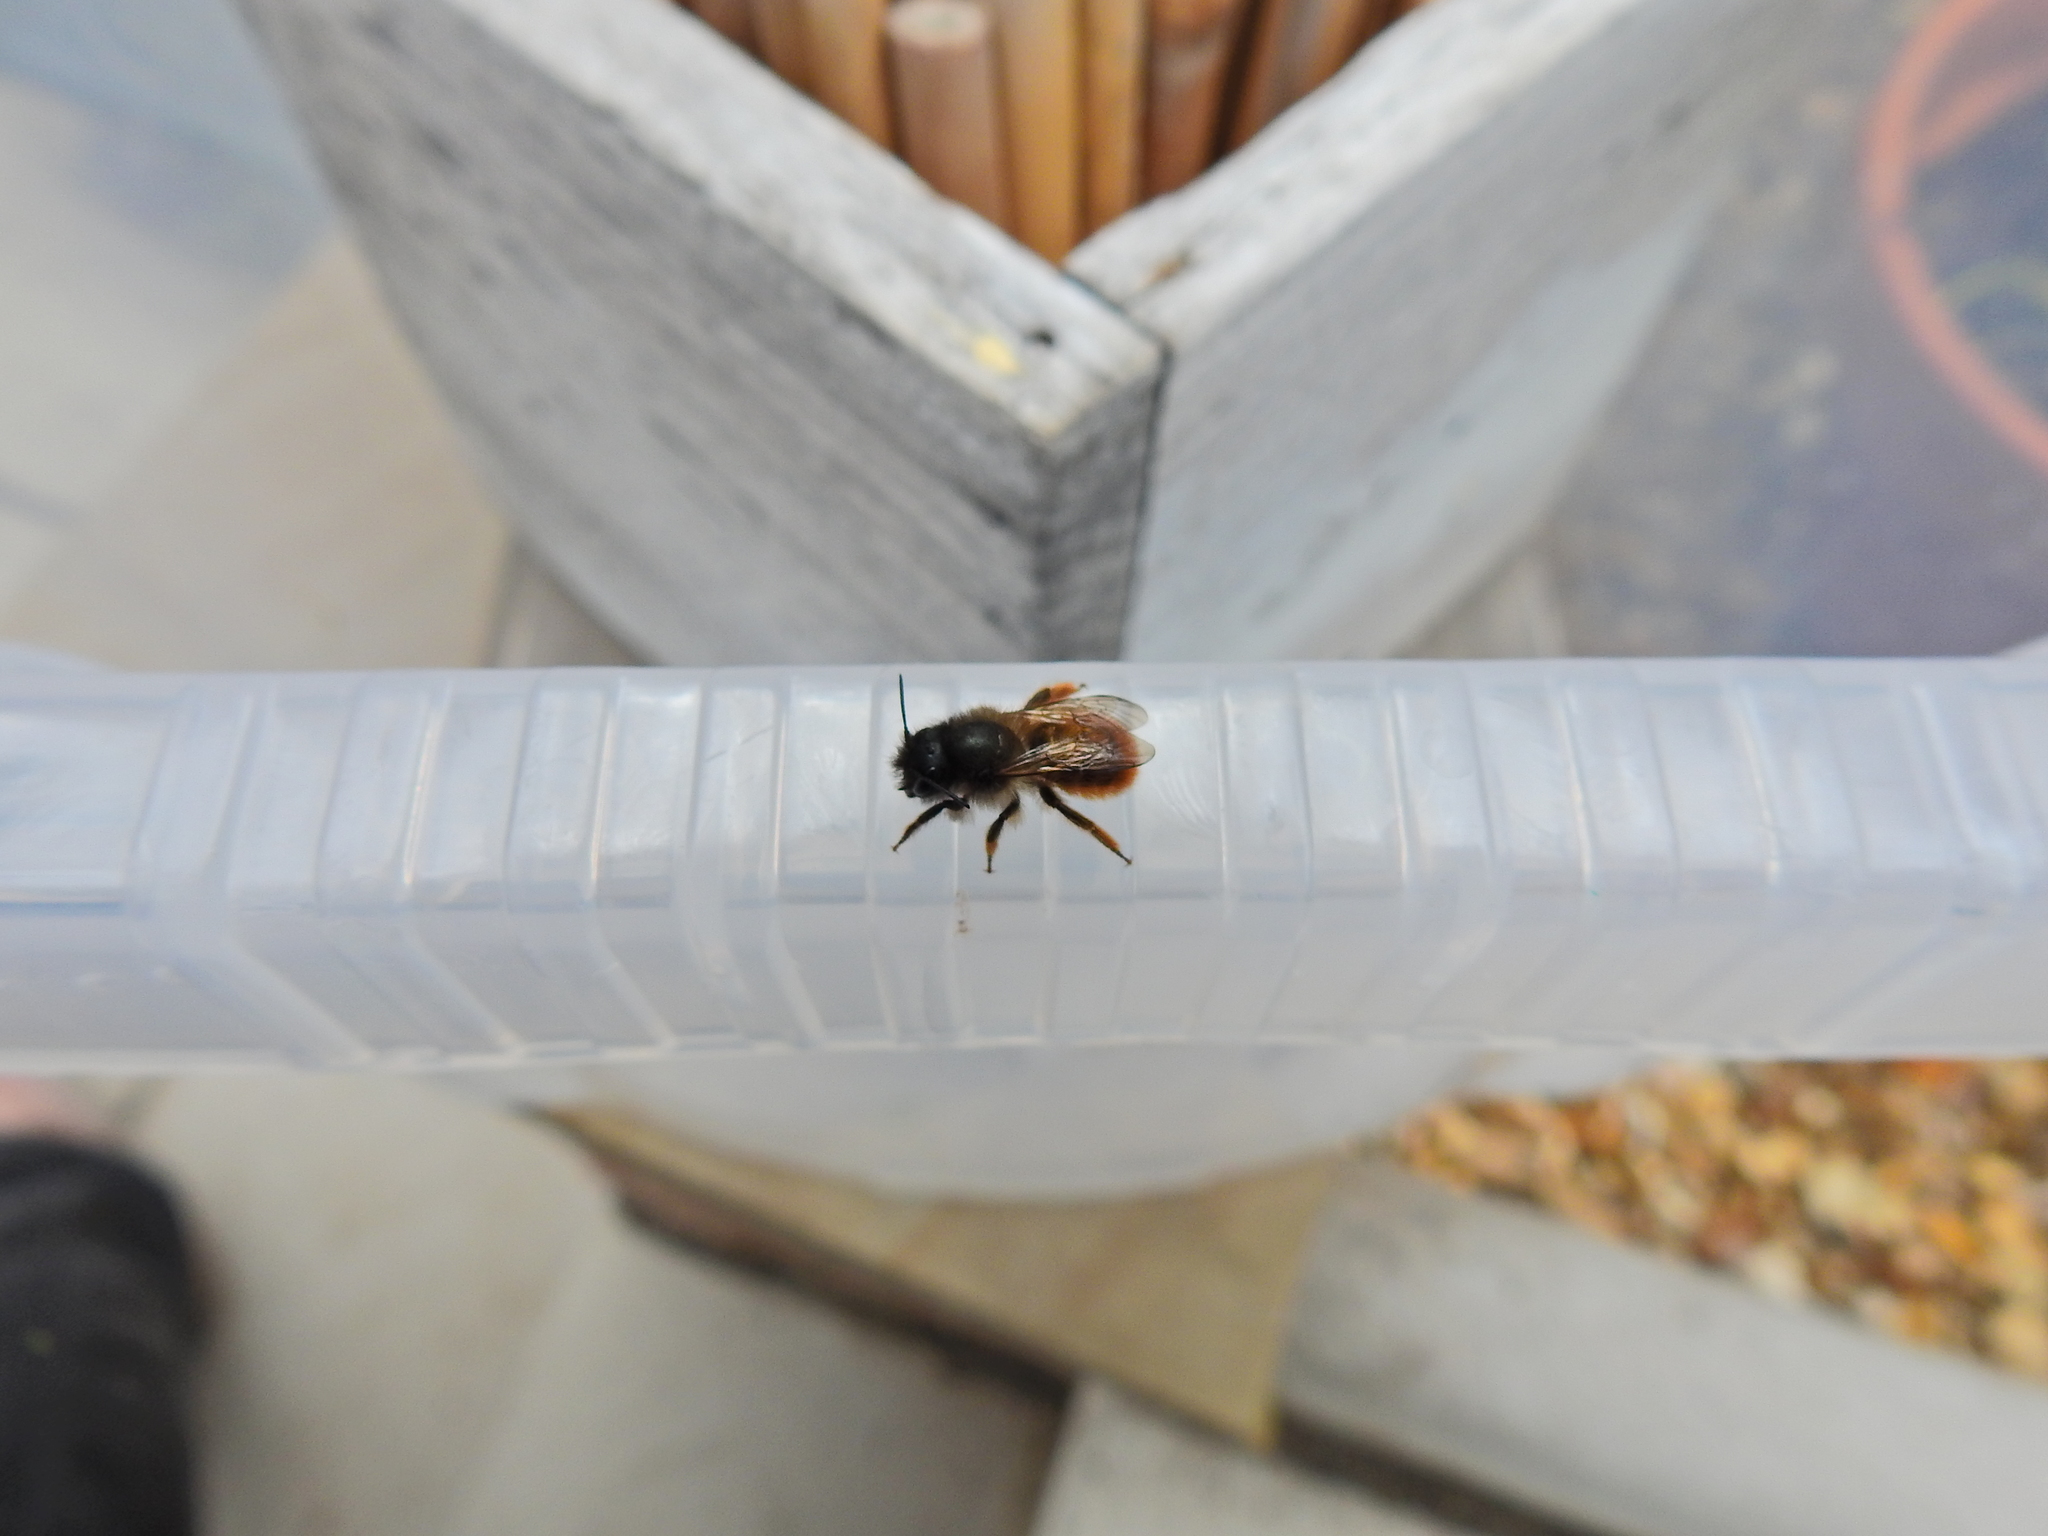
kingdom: Animalia
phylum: Arthropoda
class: Insecta
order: Hymenoptera
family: Megachilidae
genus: Osmia
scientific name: Osmia bicornis
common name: Red mason bee
